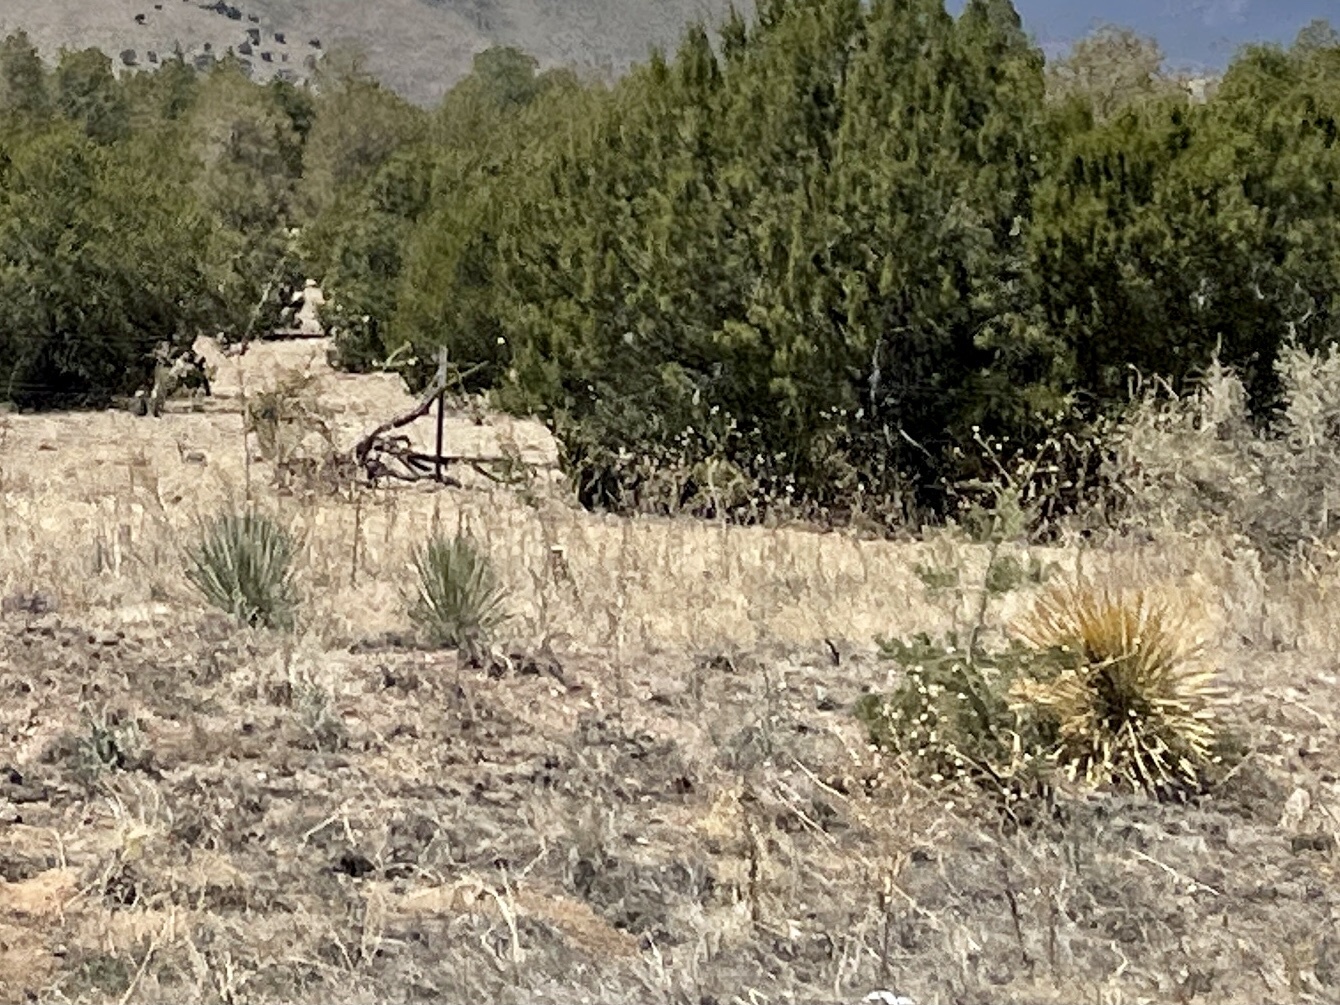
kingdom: Plantae
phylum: Tracheophyta
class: Liliopsida
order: Asparagales
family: Asparagaceae
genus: Yucca
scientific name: Yucca elata
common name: Palmella
